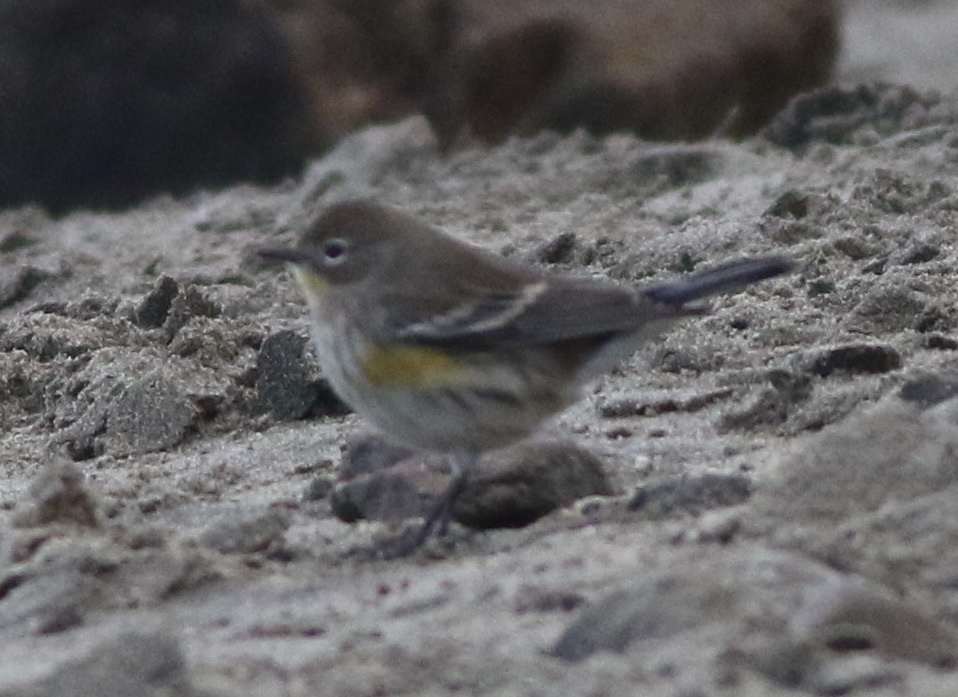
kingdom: Animalia
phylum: Chordata
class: Aves
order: Passeriformes
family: Parulidae
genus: Setophaga
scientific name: Setophaga coronata
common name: Myrtle warbler
